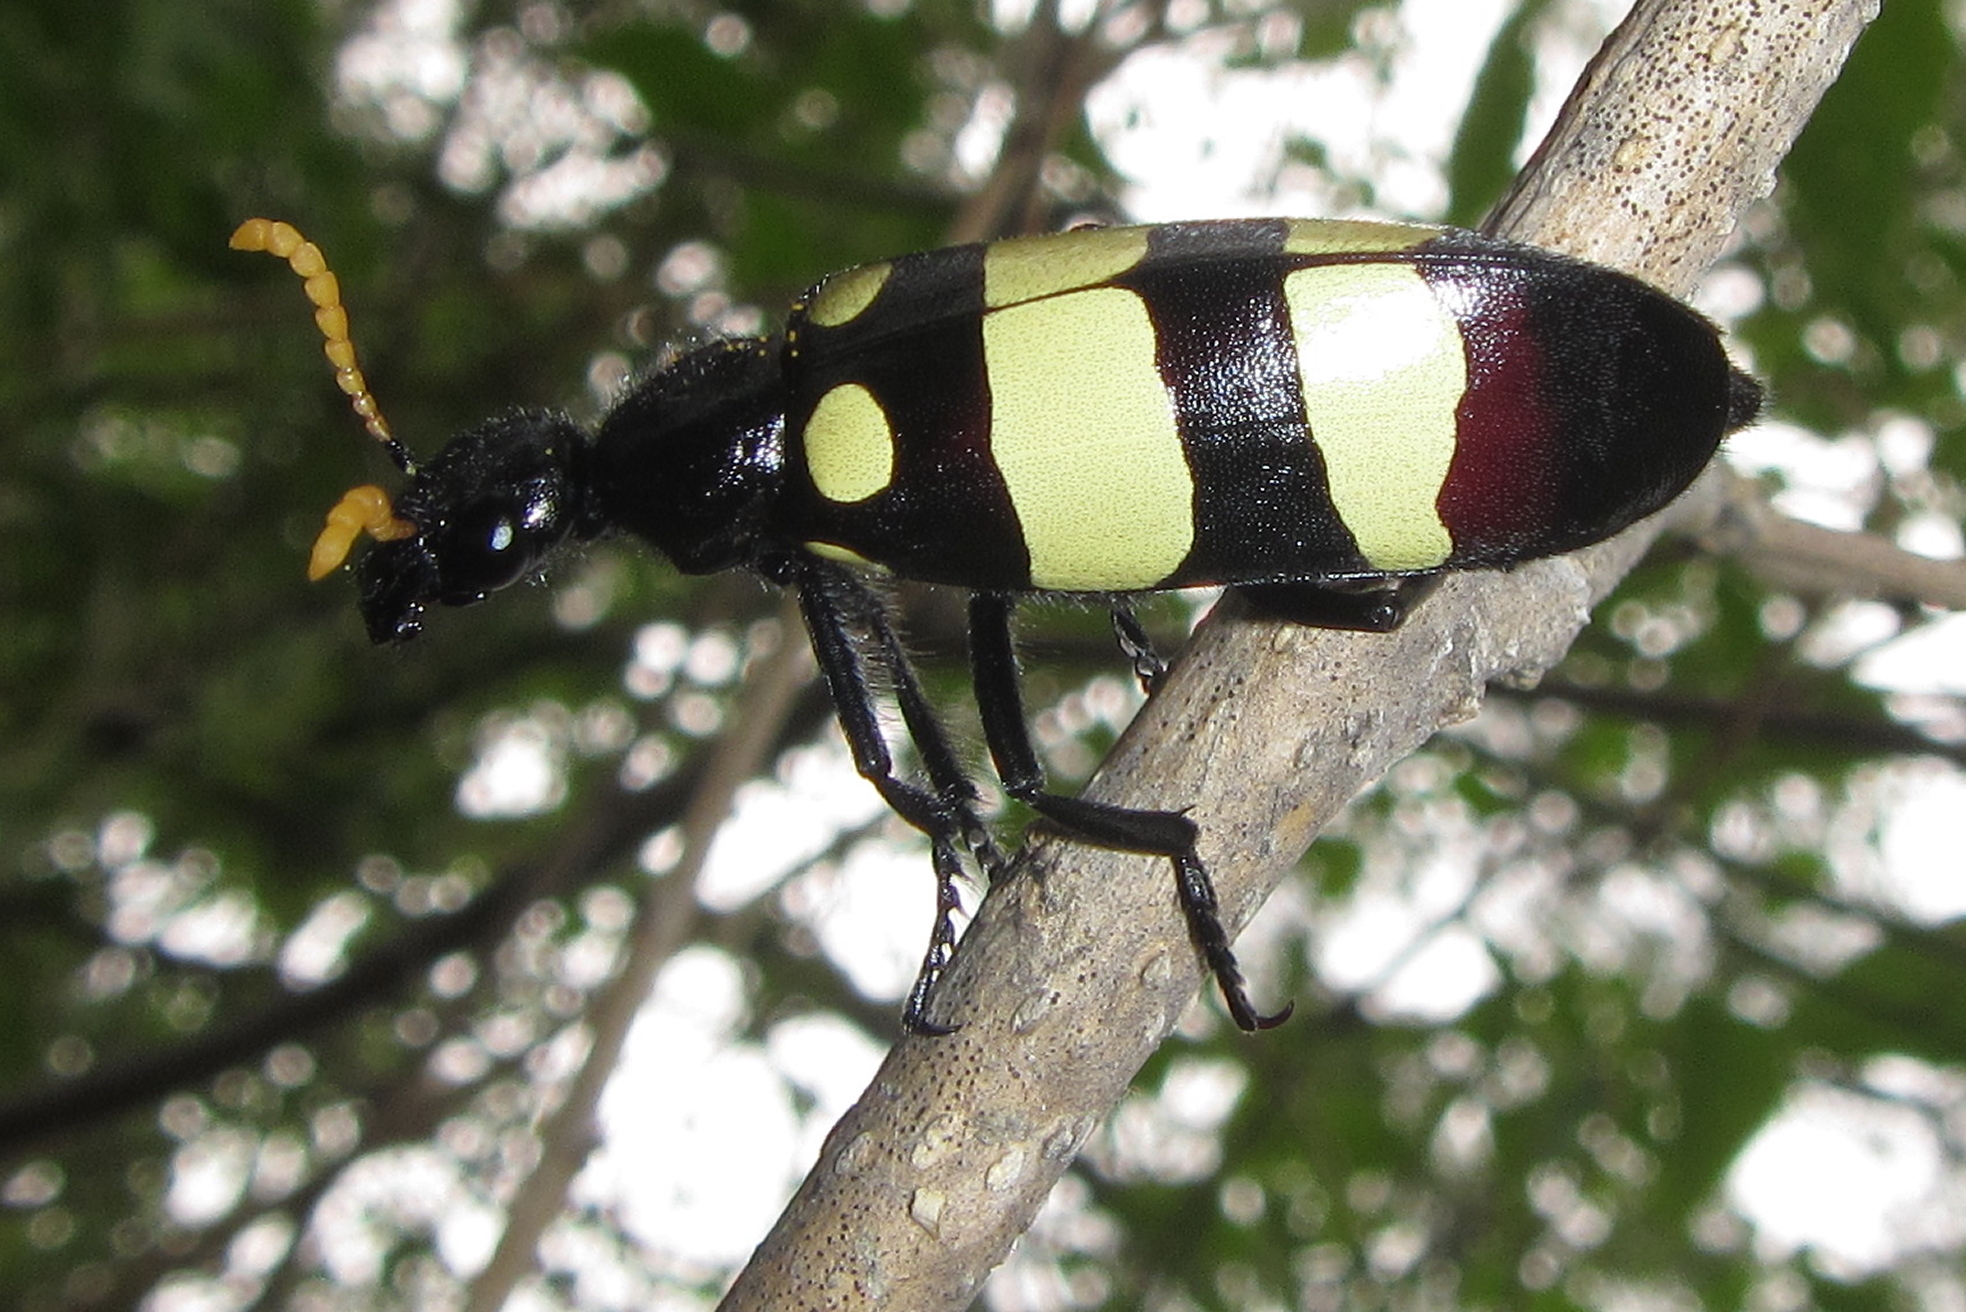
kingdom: Animalia
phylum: Arthropoda
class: Insecta
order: Coleoptera
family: Meloidae
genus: Hycleus
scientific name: Hycleus
